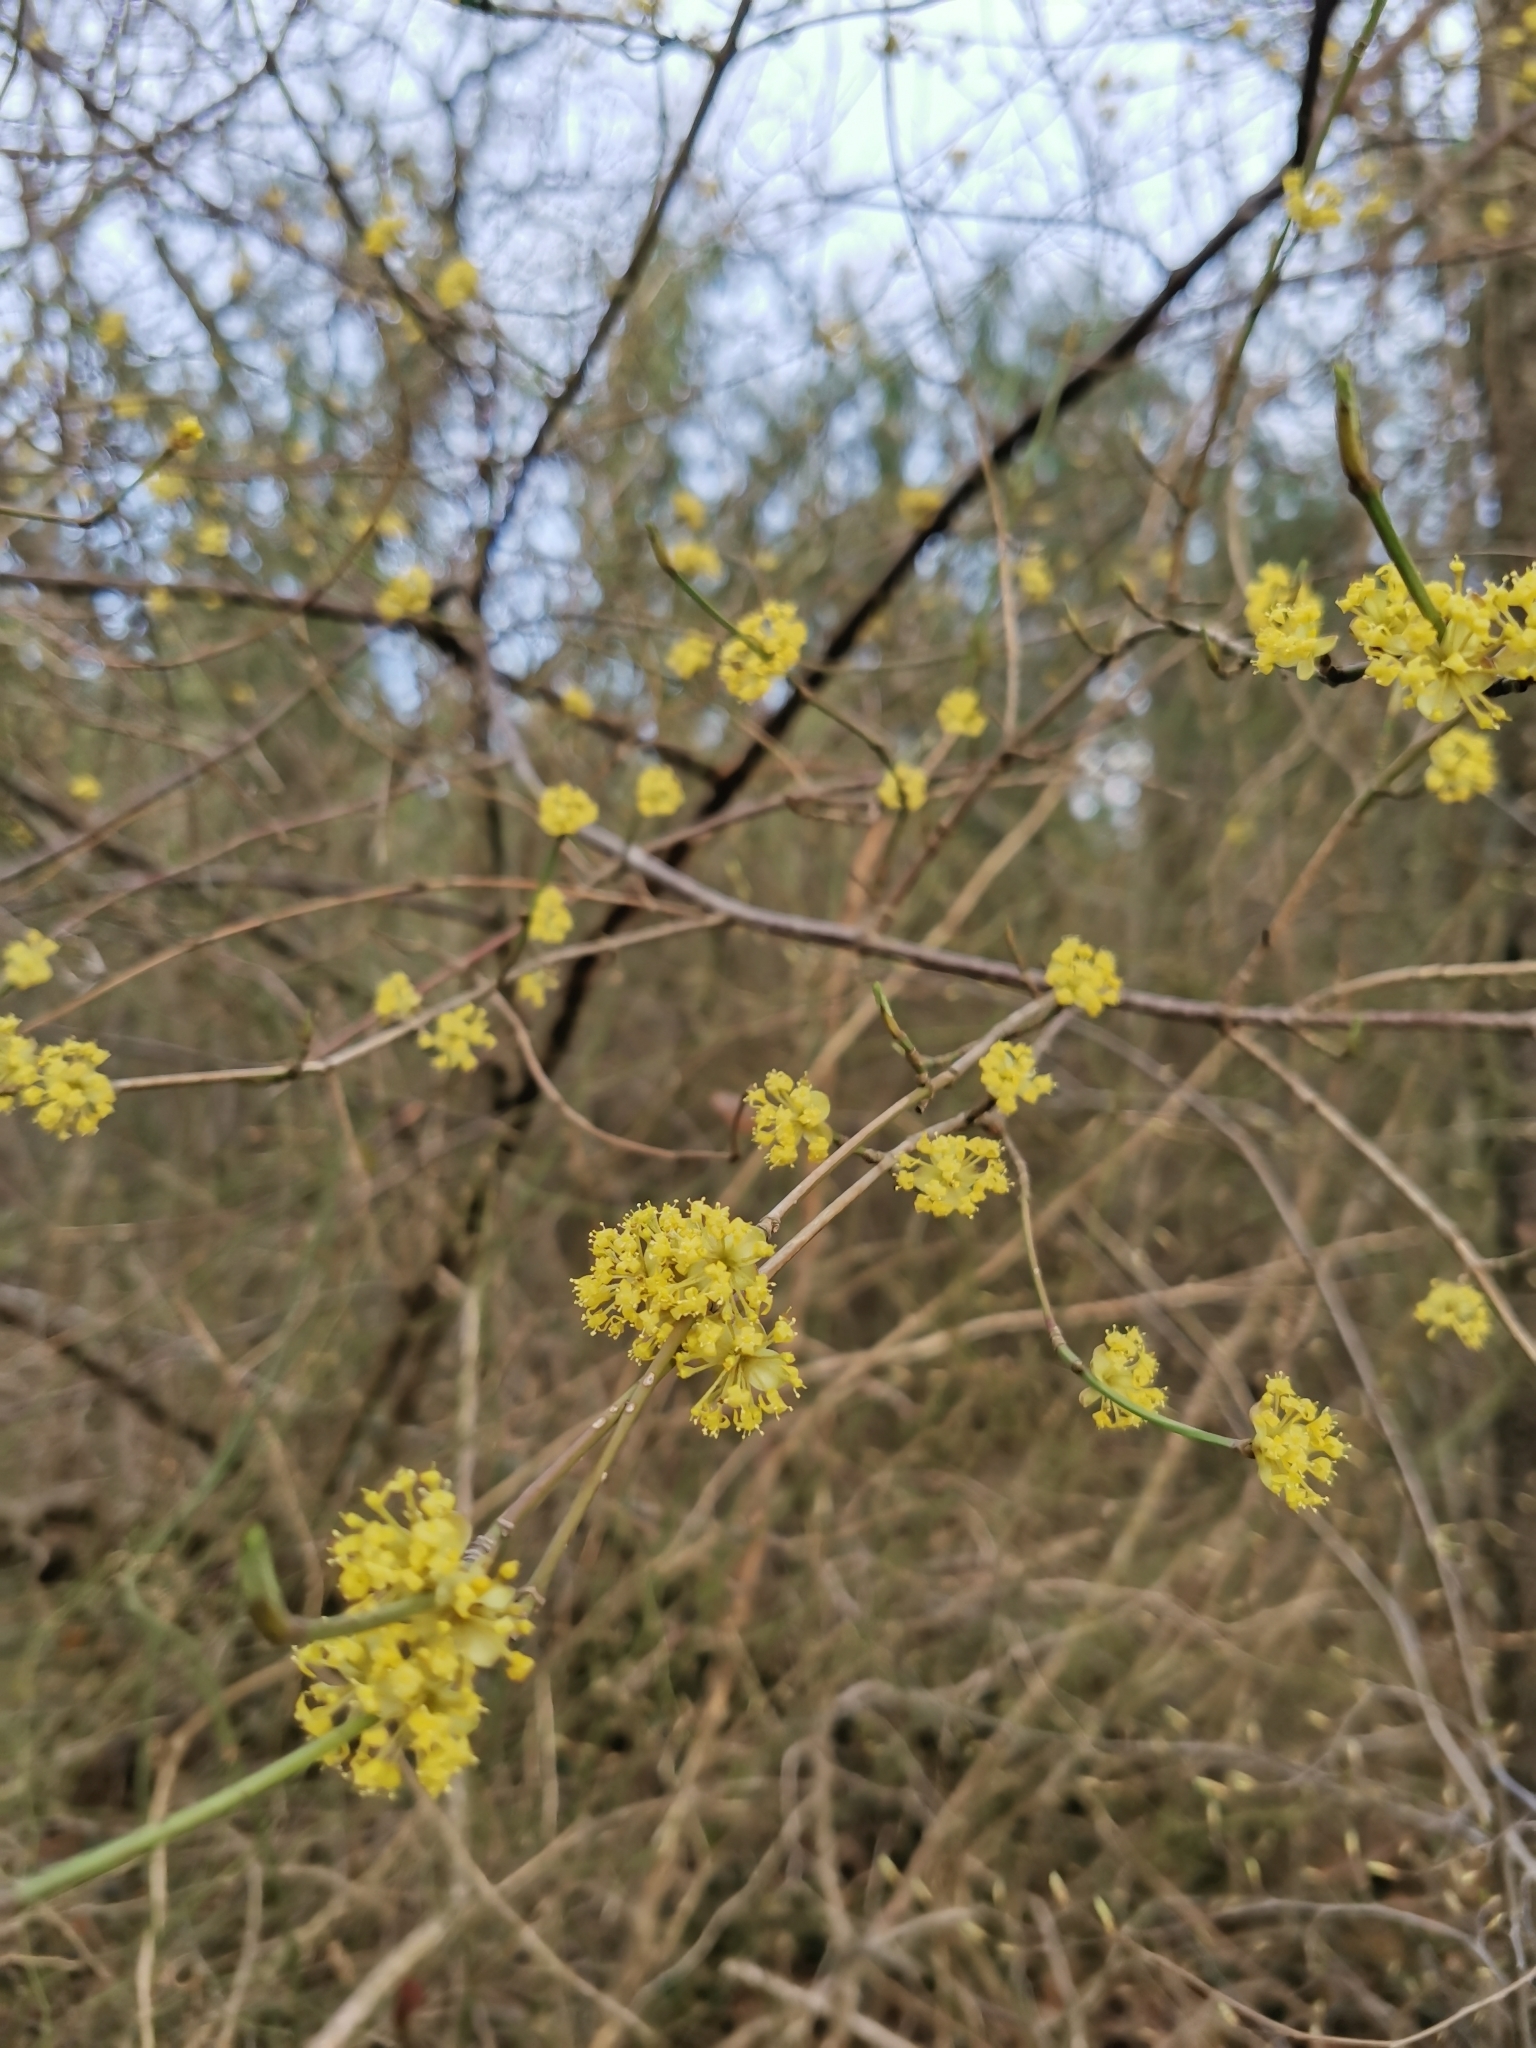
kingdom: Plantae
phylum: Tracheophyta
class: Magnoliopsida
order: Cornales
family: Cornaceae
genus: Cornus
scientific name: Cornus mas
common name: Cornelian-cherry
